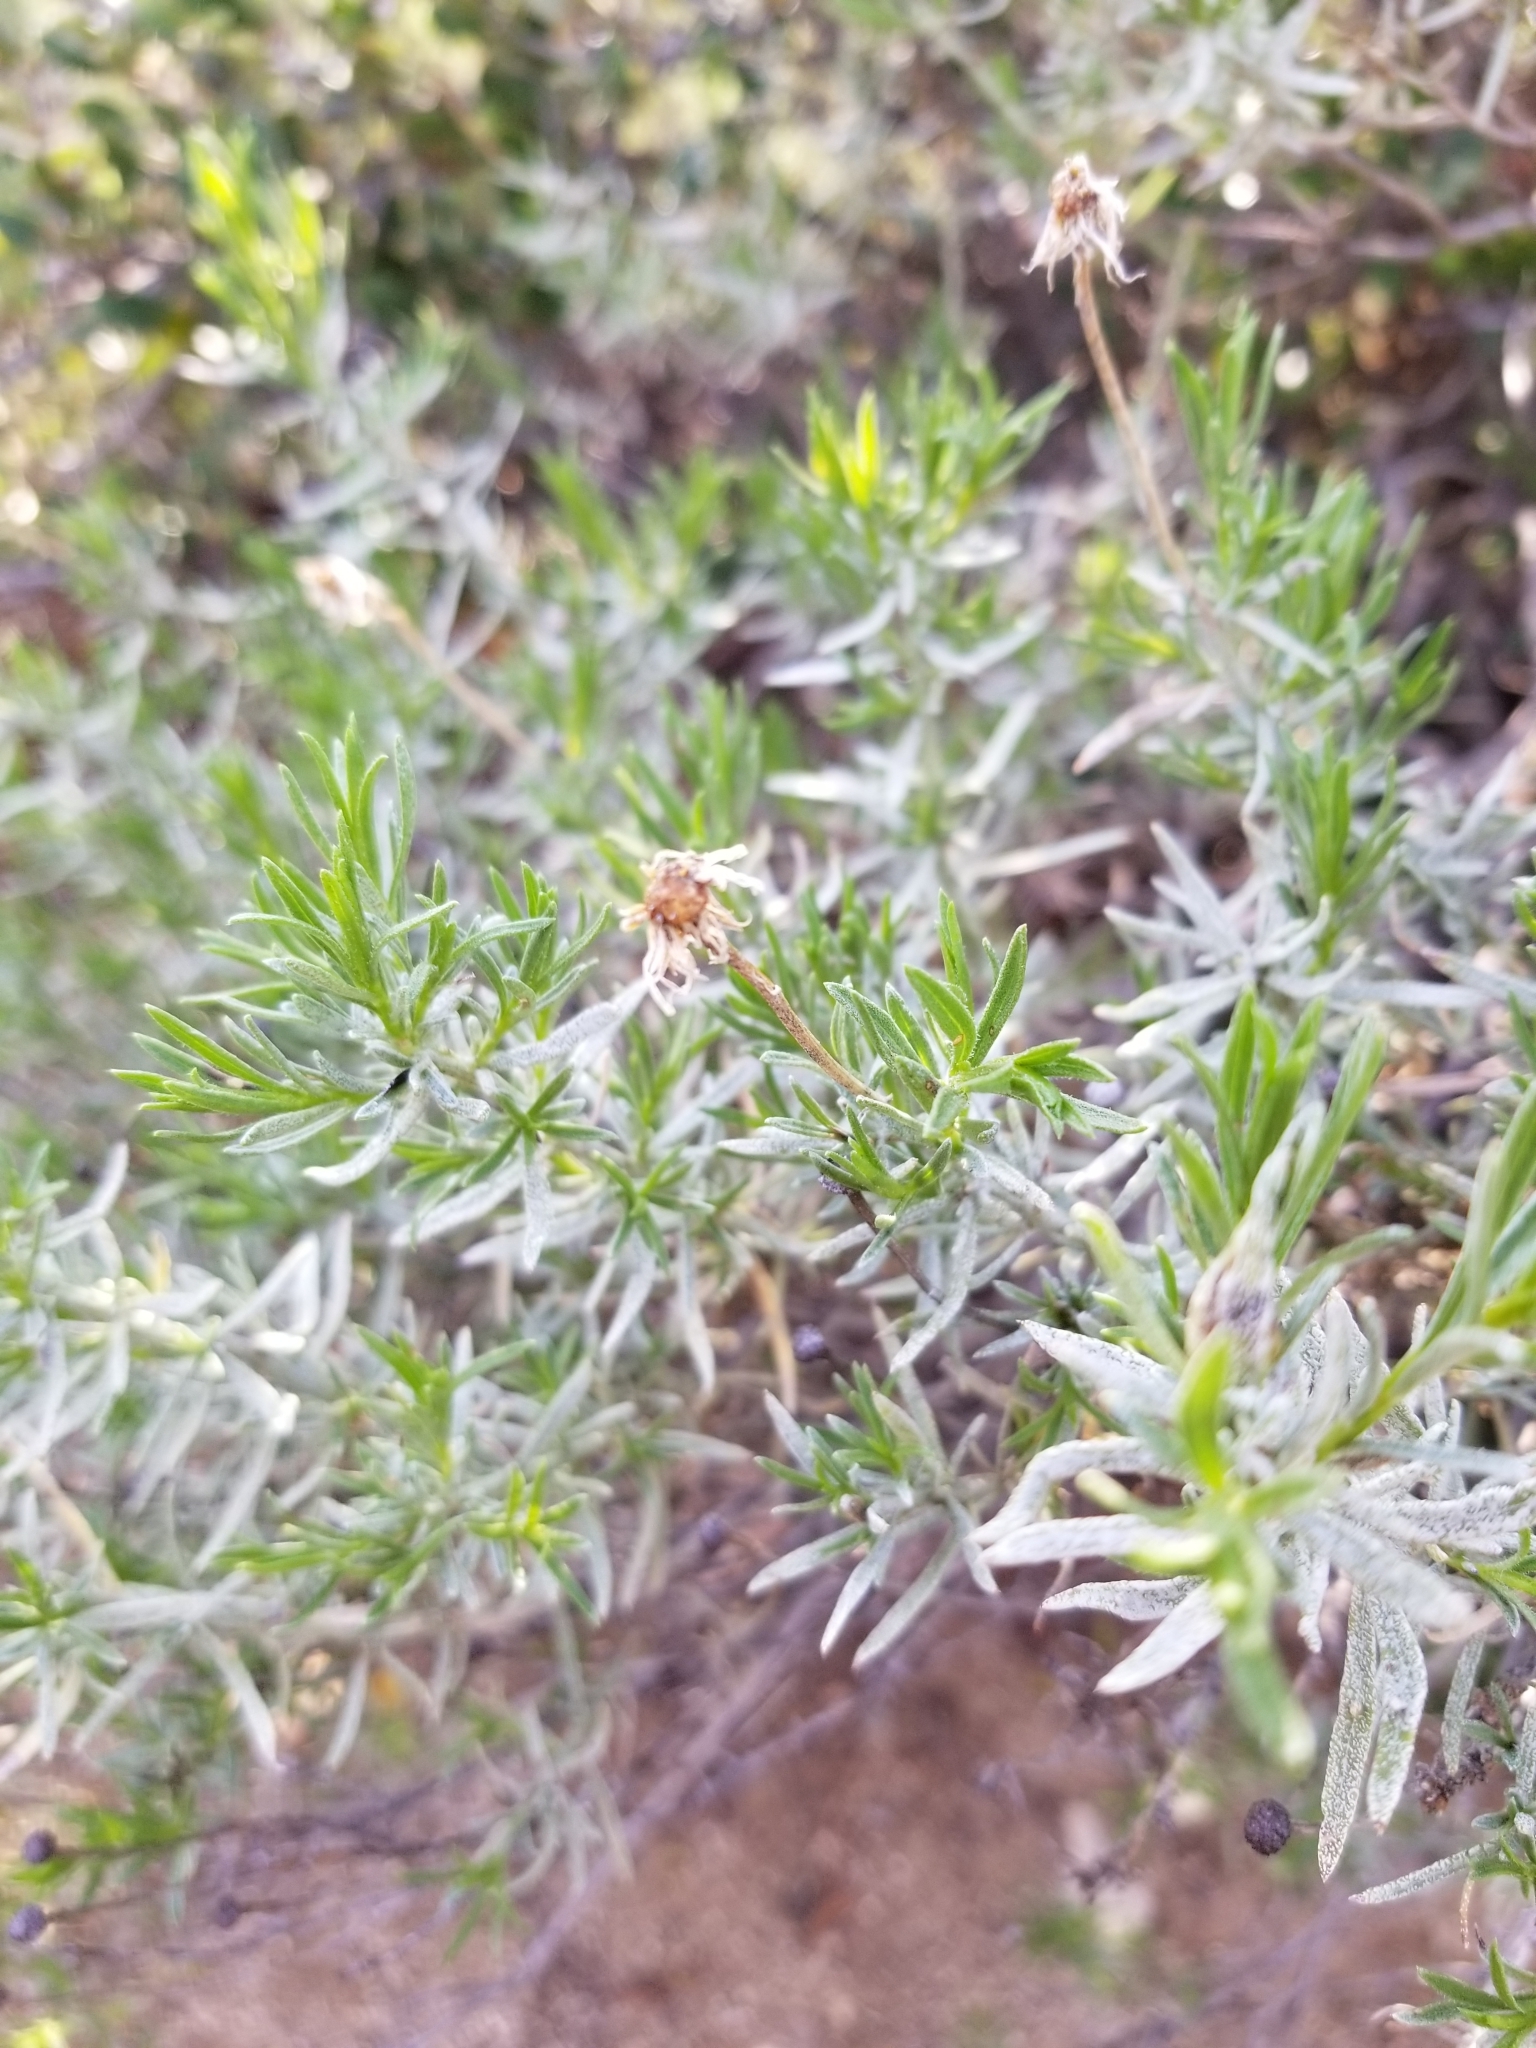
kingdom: Plantae
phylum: Tracheophyta
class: Magnoliopsida
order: Asterales
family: Asteraceae
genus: Ericameria
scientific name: Ericameria linearifolia
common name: Interior goldenbush
